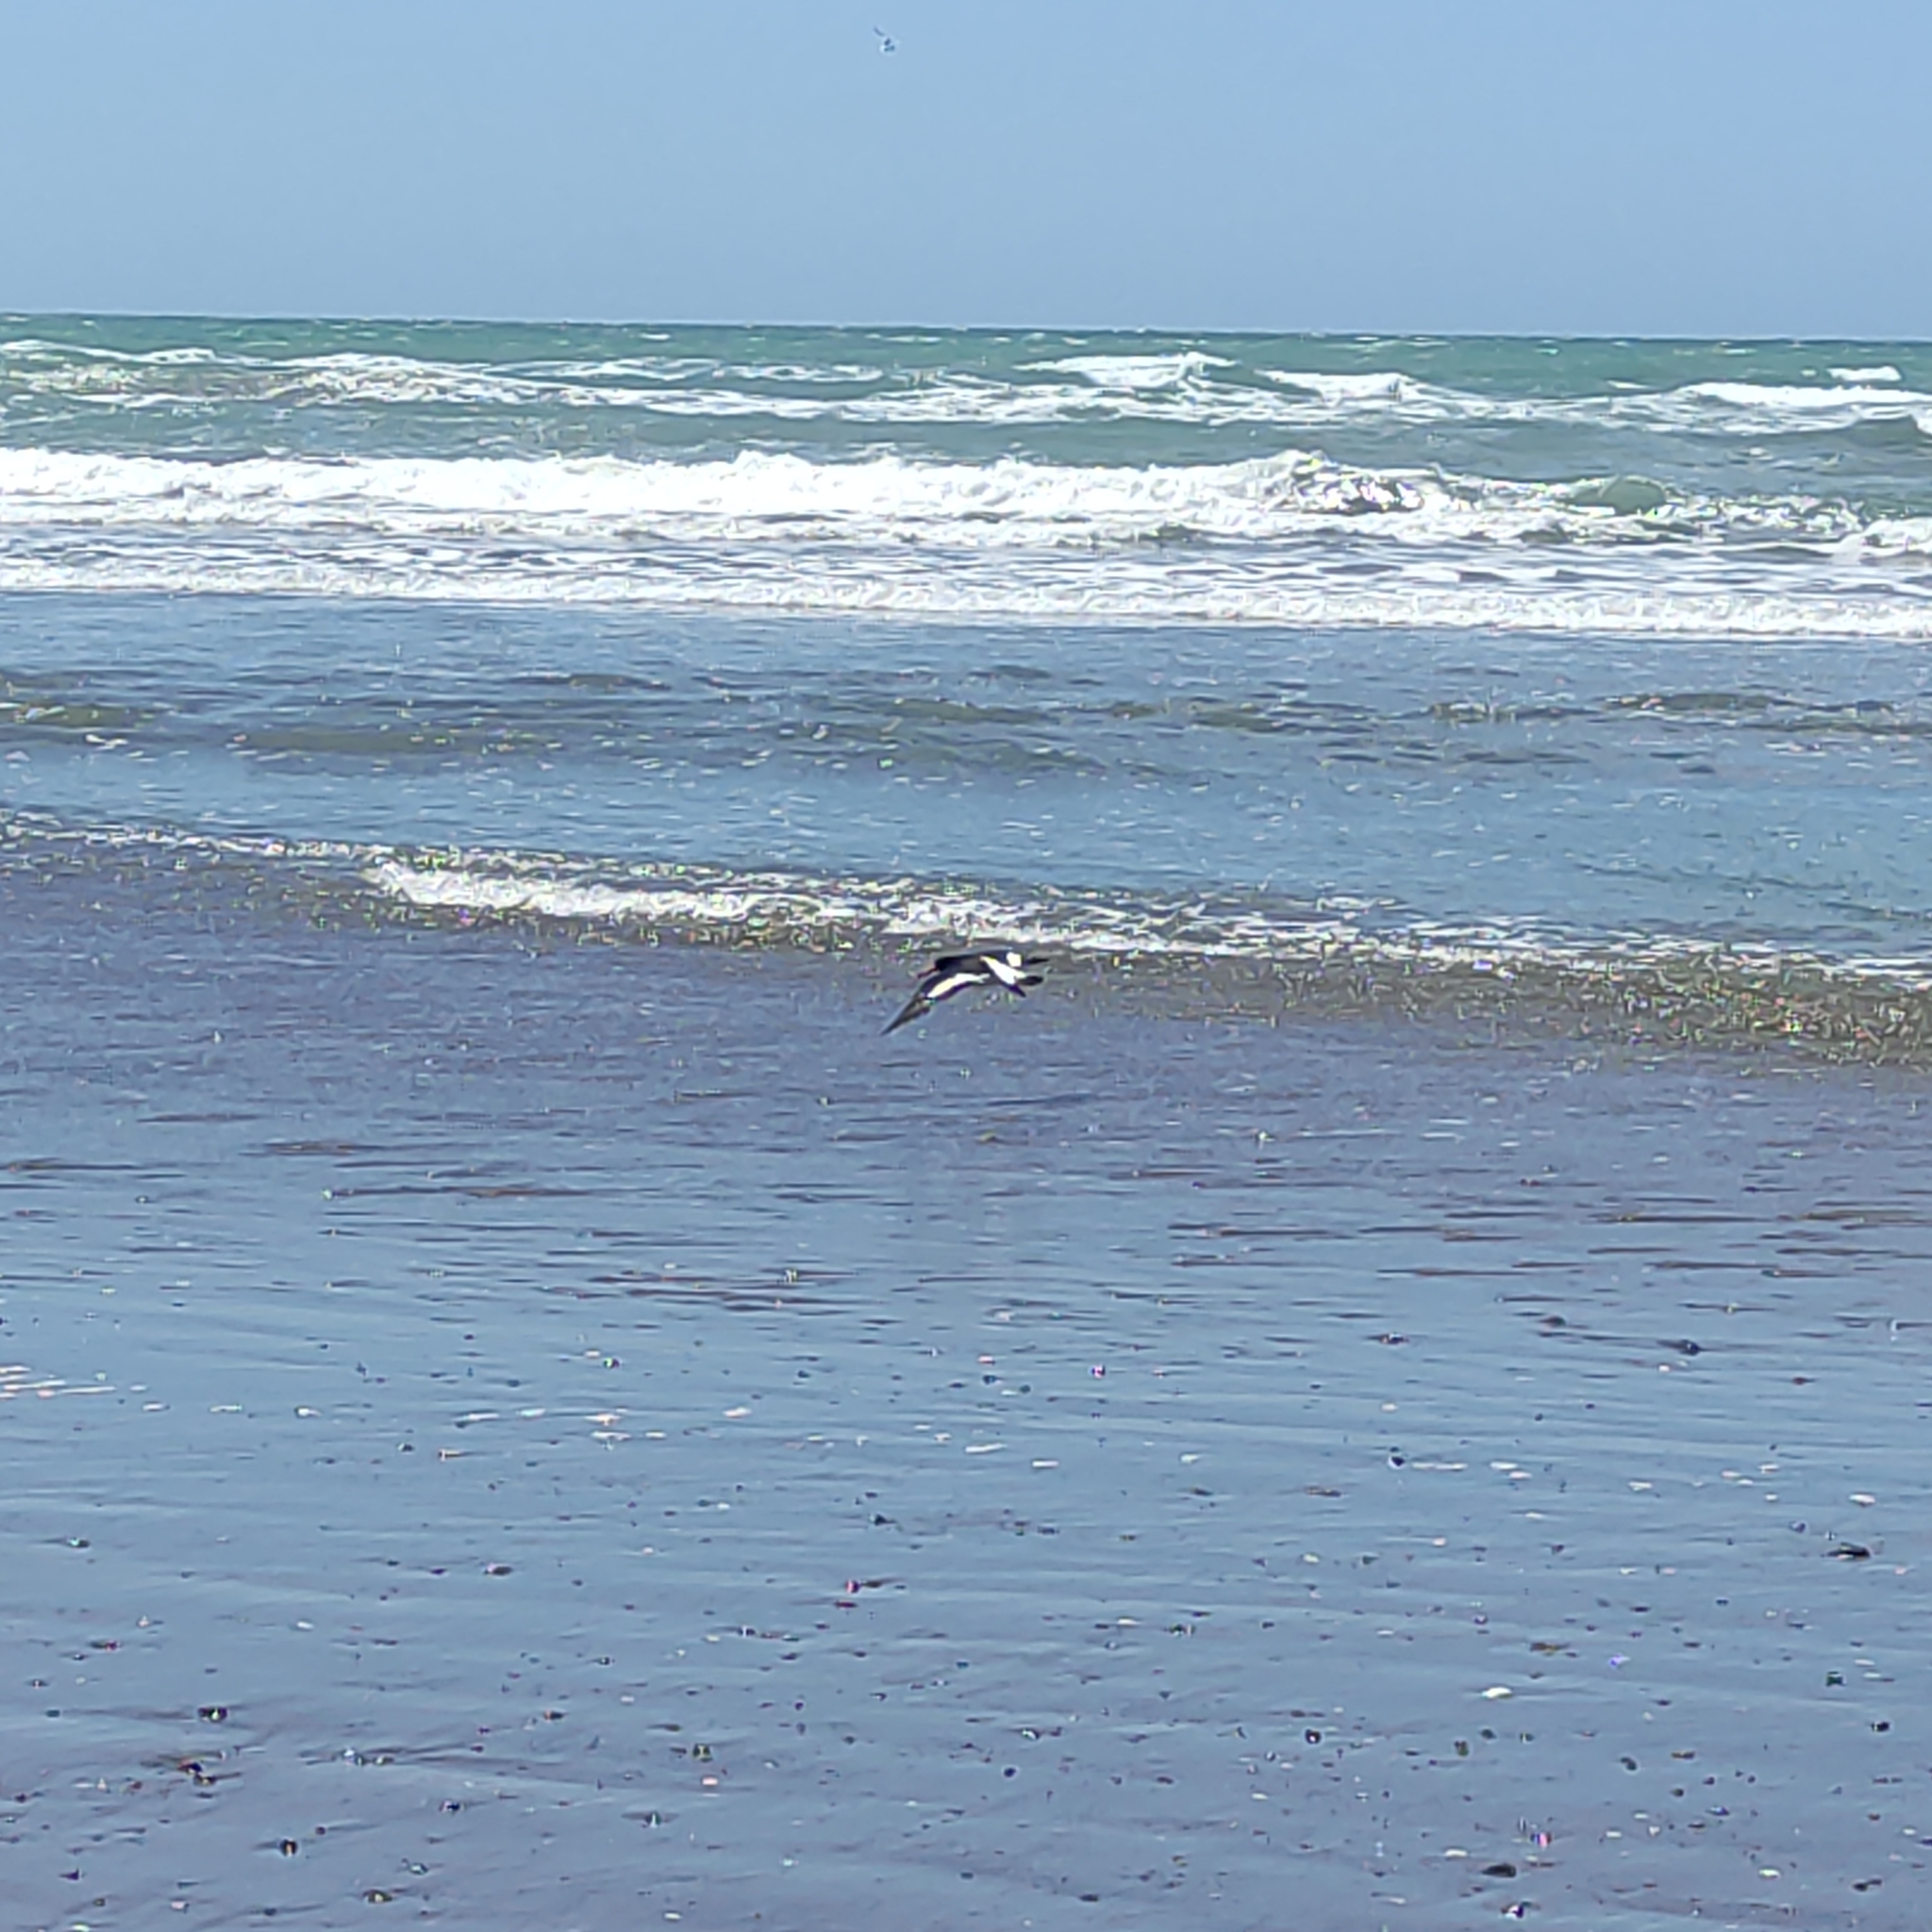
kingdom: Animalia
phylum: Chordata
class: Aves
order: Charadriiformes
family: Haematopodidae
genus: Haematopus
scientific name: Haematopus finschi
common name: South island oystercatcher
